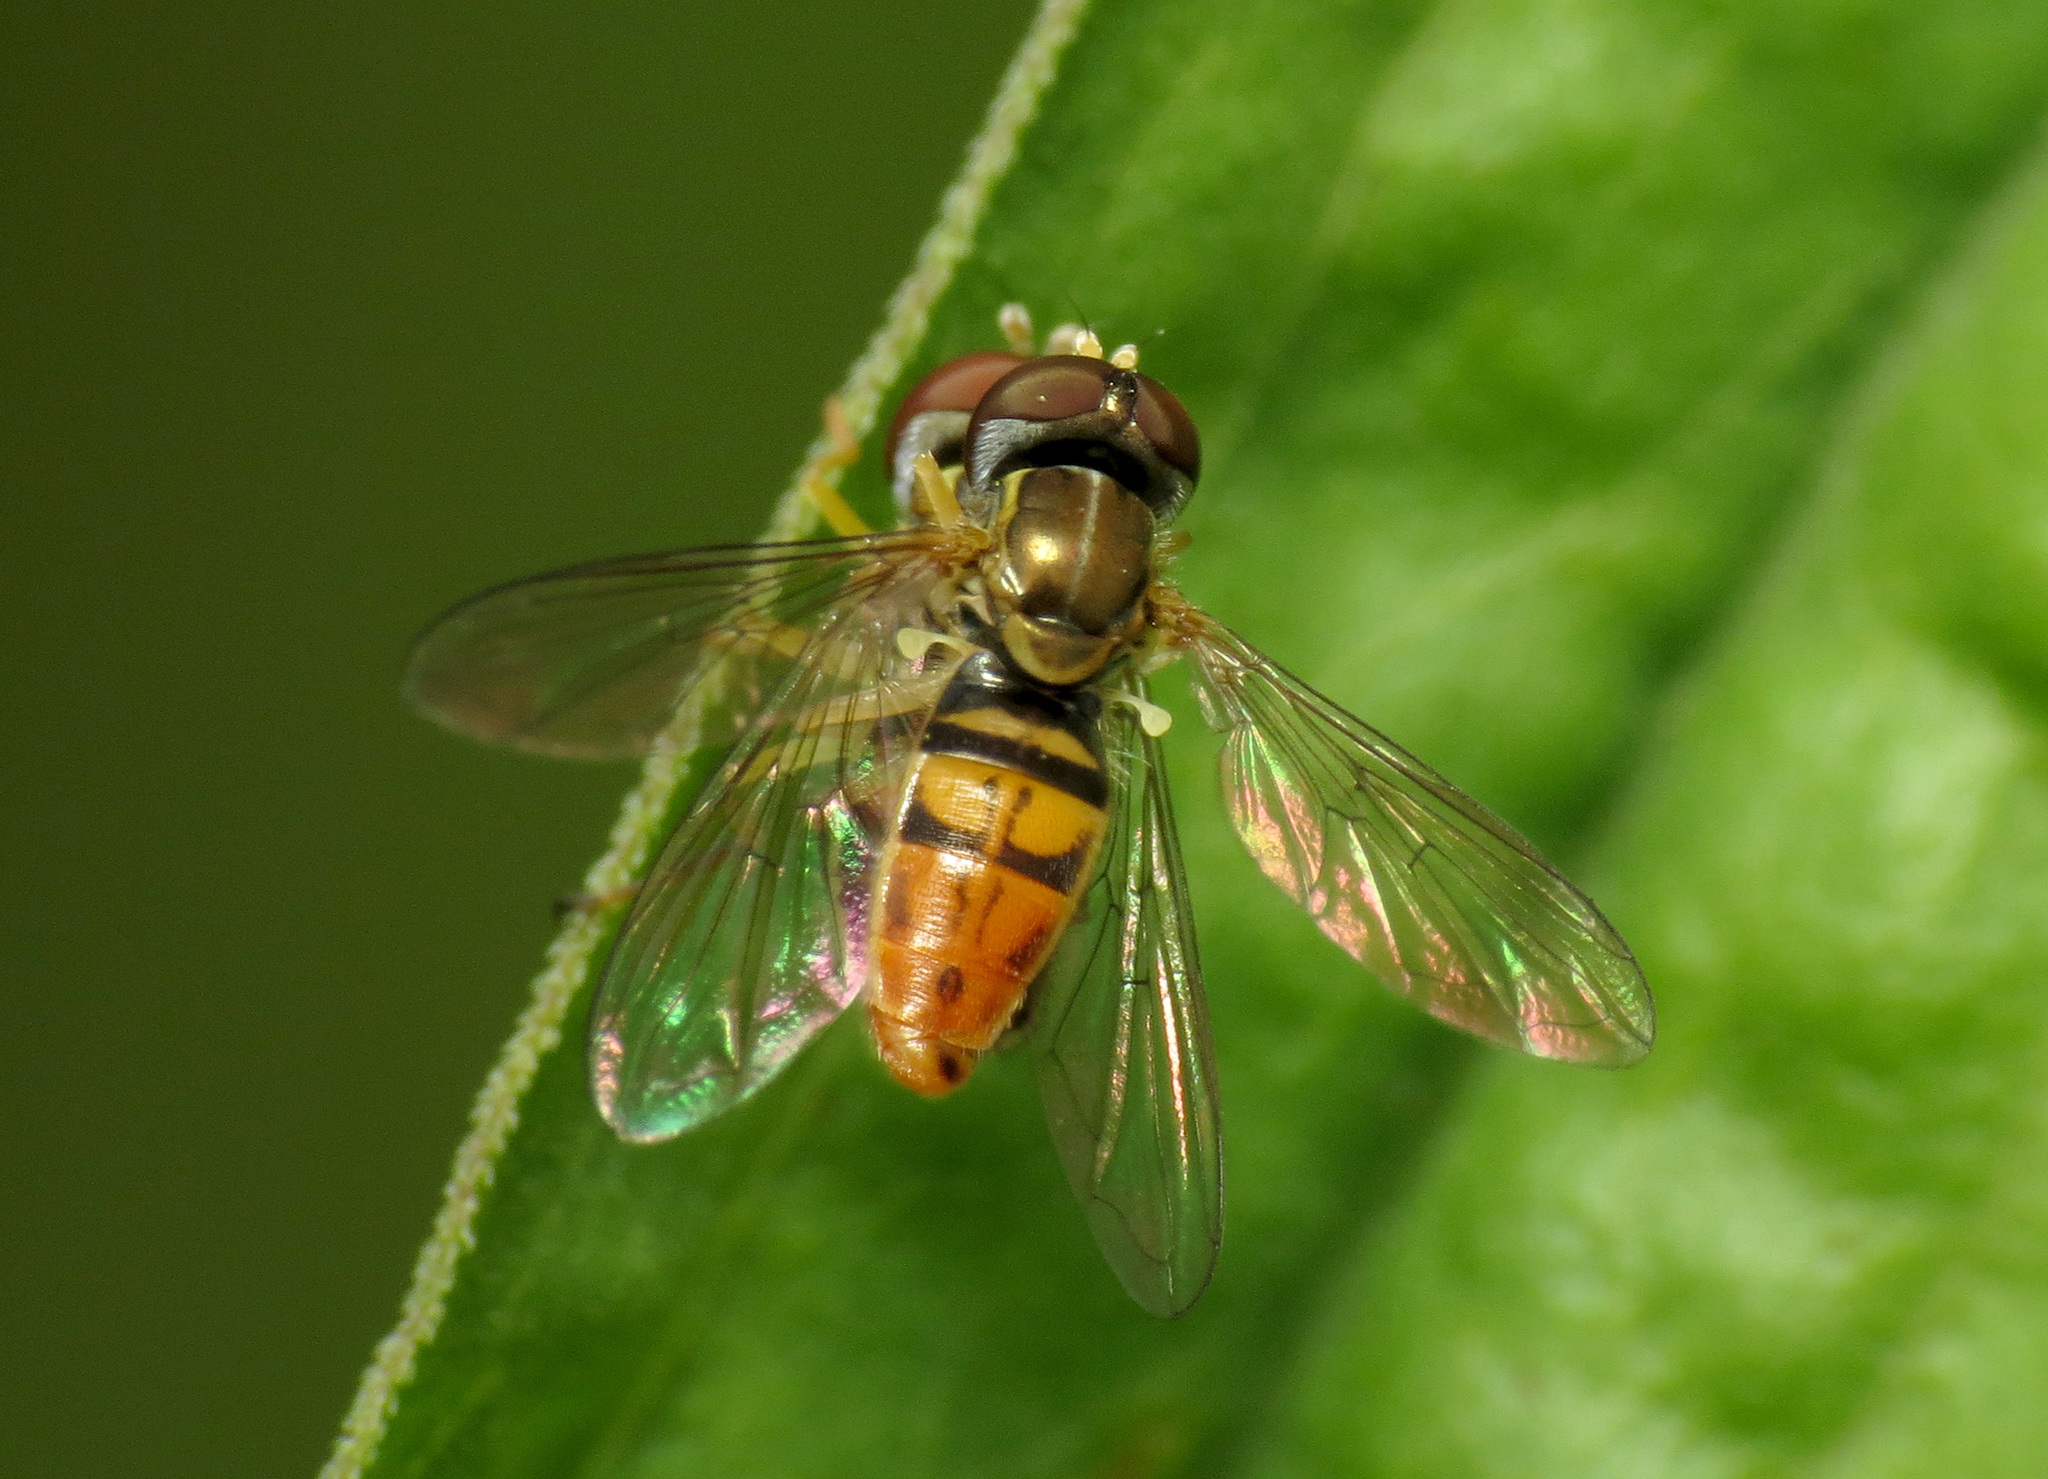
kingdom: Animalia
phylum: Arthropoda
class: Insecta
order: Diptera
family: Syrphidae
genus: Toxomerus
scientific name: Toxomerus marginatus
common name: Syrphid fly
